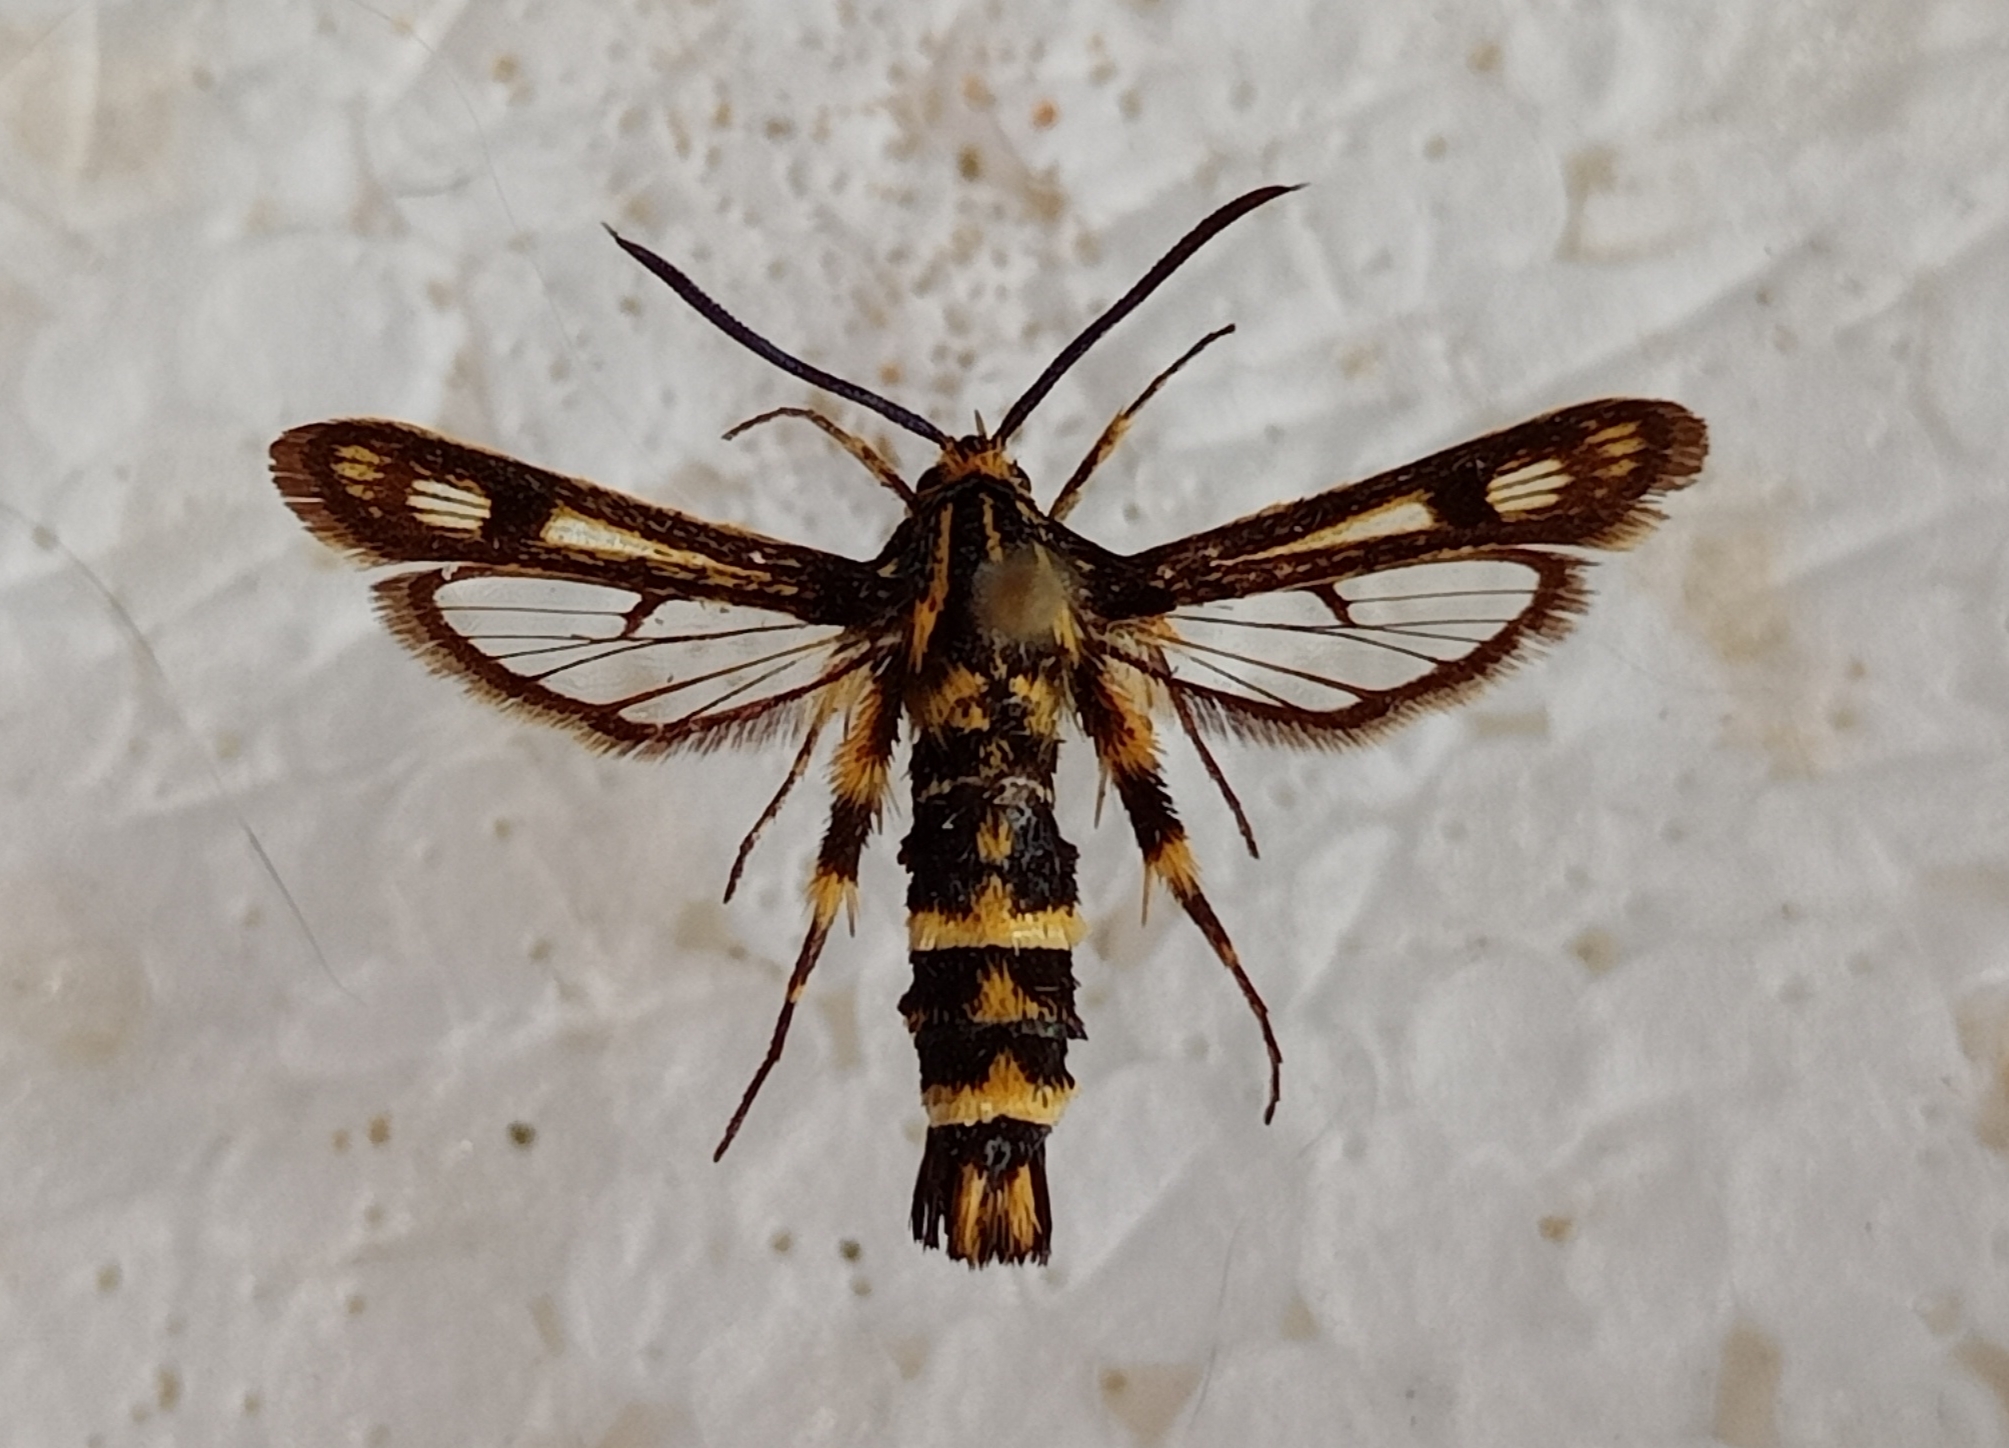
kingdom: Animalia
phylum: Arthropoda
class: Insecta
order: Lepidoptera
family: Sesiidae
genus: Chamaesphecia
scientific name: Chamaesphecia bibioniformis
